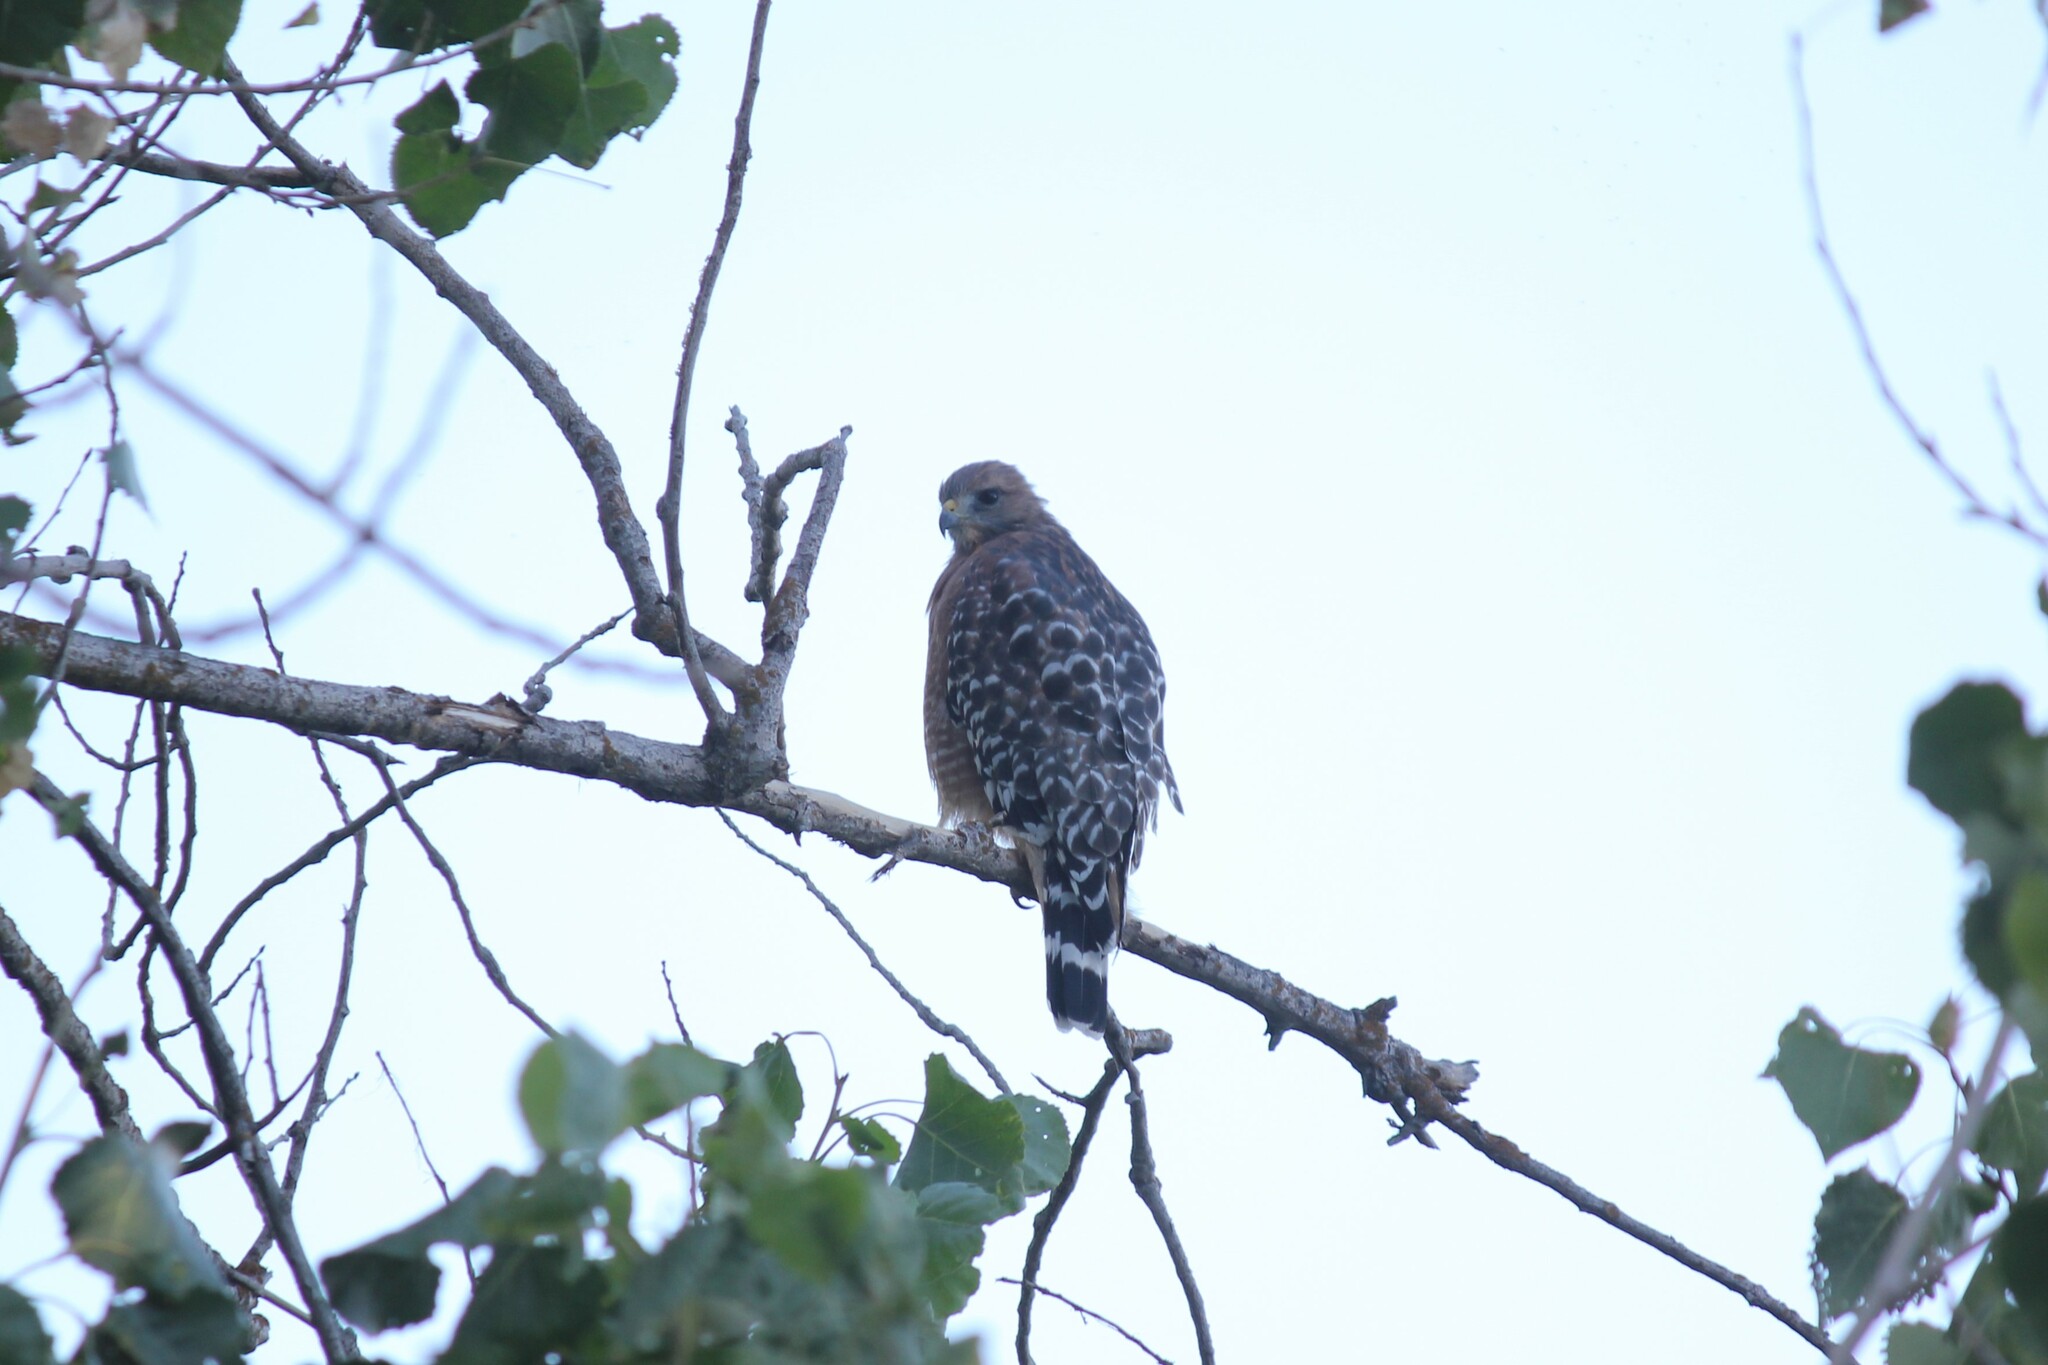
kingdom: Animalia
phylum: Chordata
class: Aves
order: Accipitriformes
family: Accipitridae
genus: Buteo
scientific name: Buteo lineatus
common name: Red-shouldered hawk
